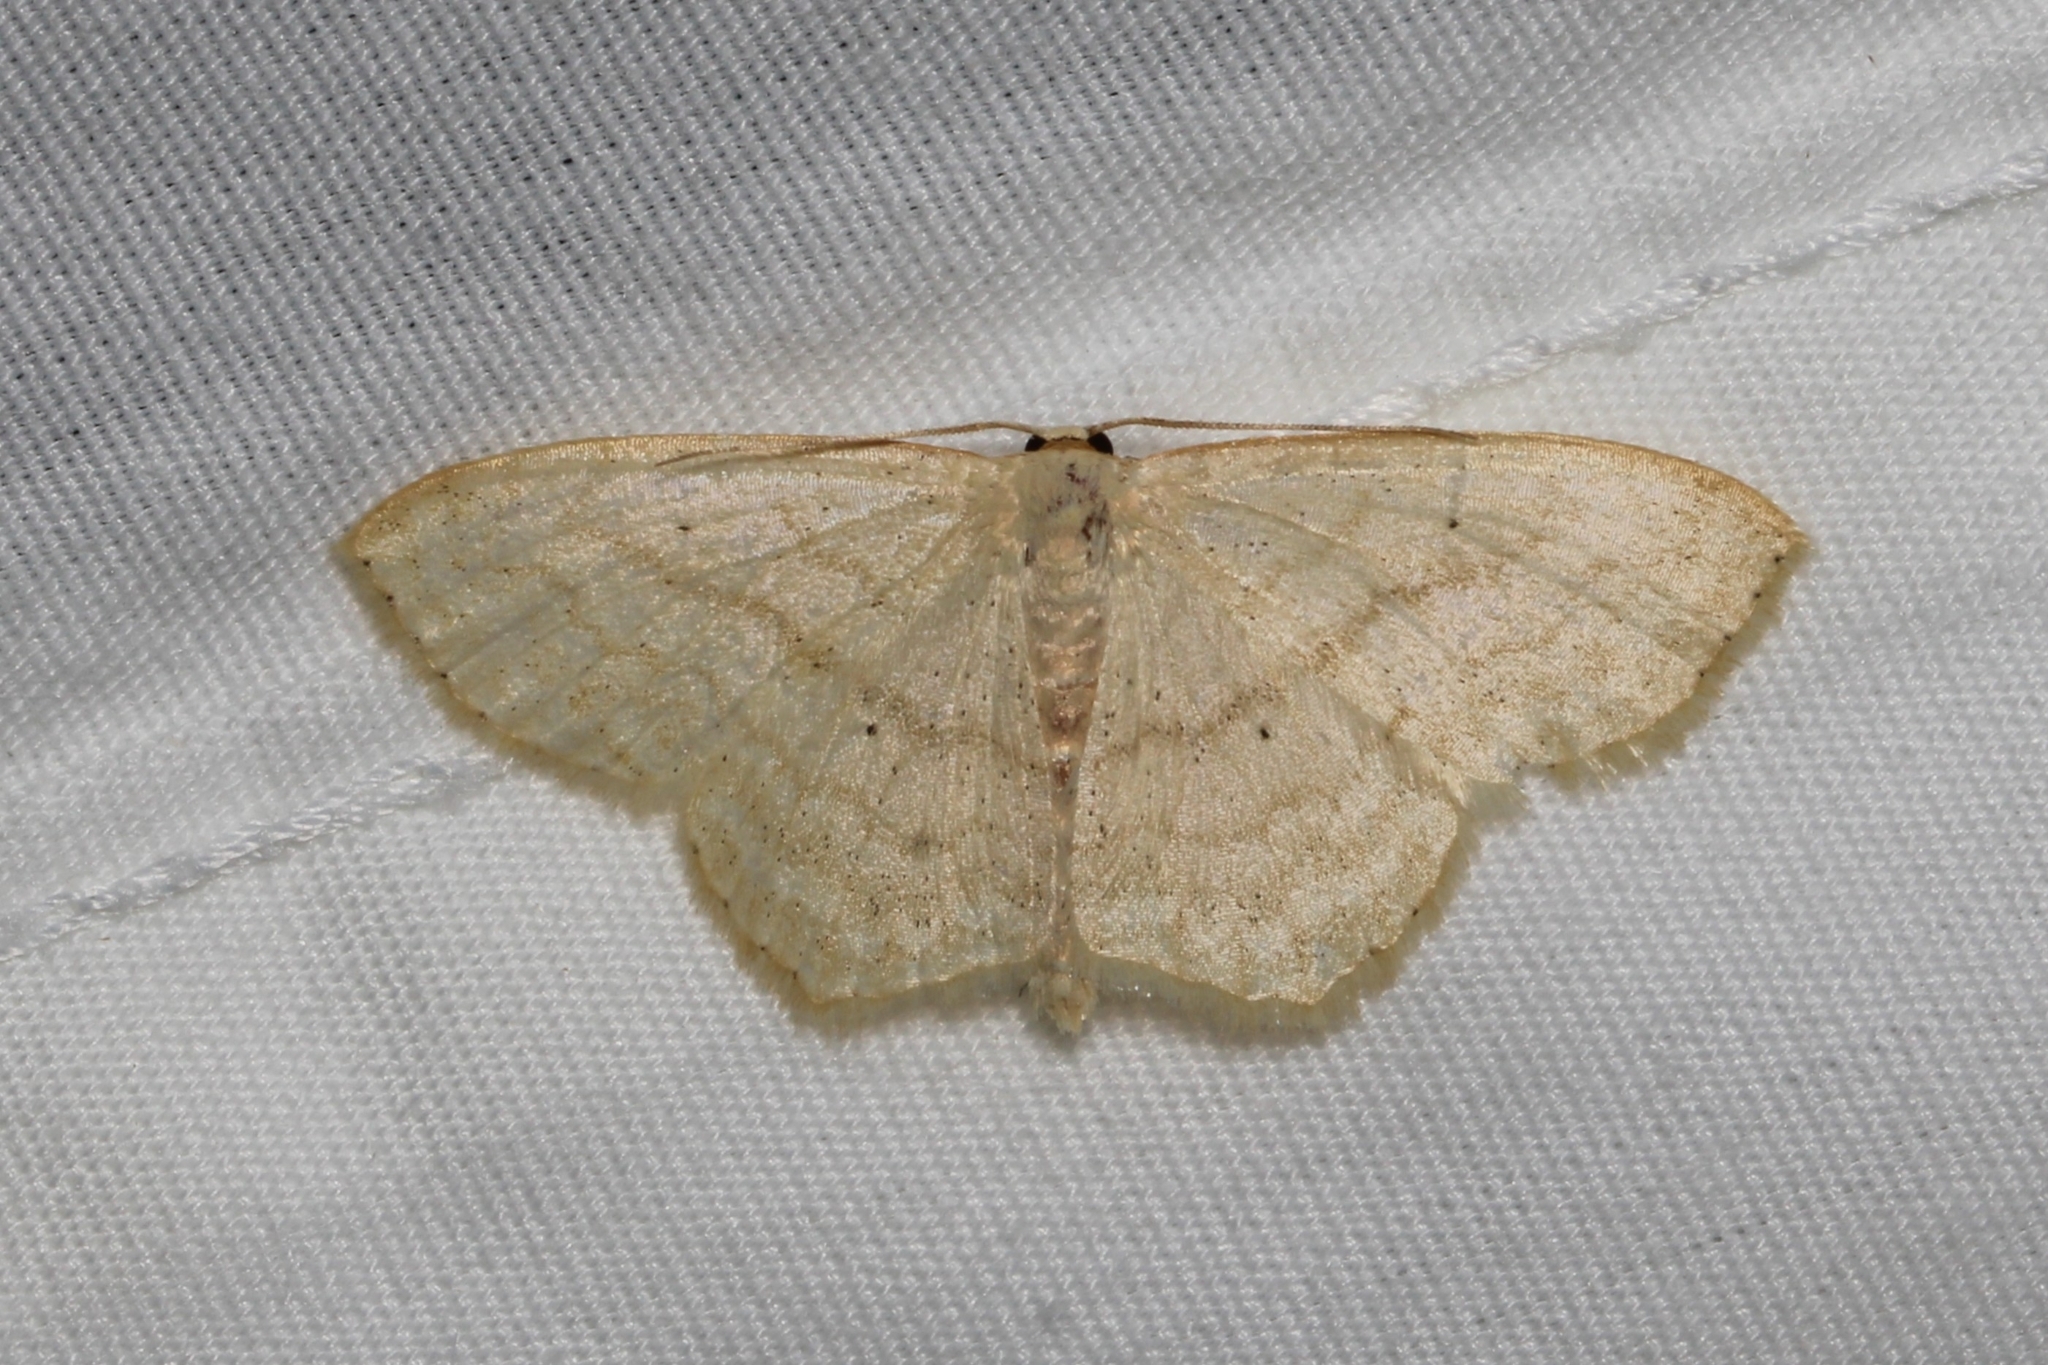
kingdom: Animalia
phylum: Arthropoda
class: Insecta
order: Lepidoptera
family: Geometridae
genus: Scopula
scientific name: Scopula limboundata
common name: Large lace border
